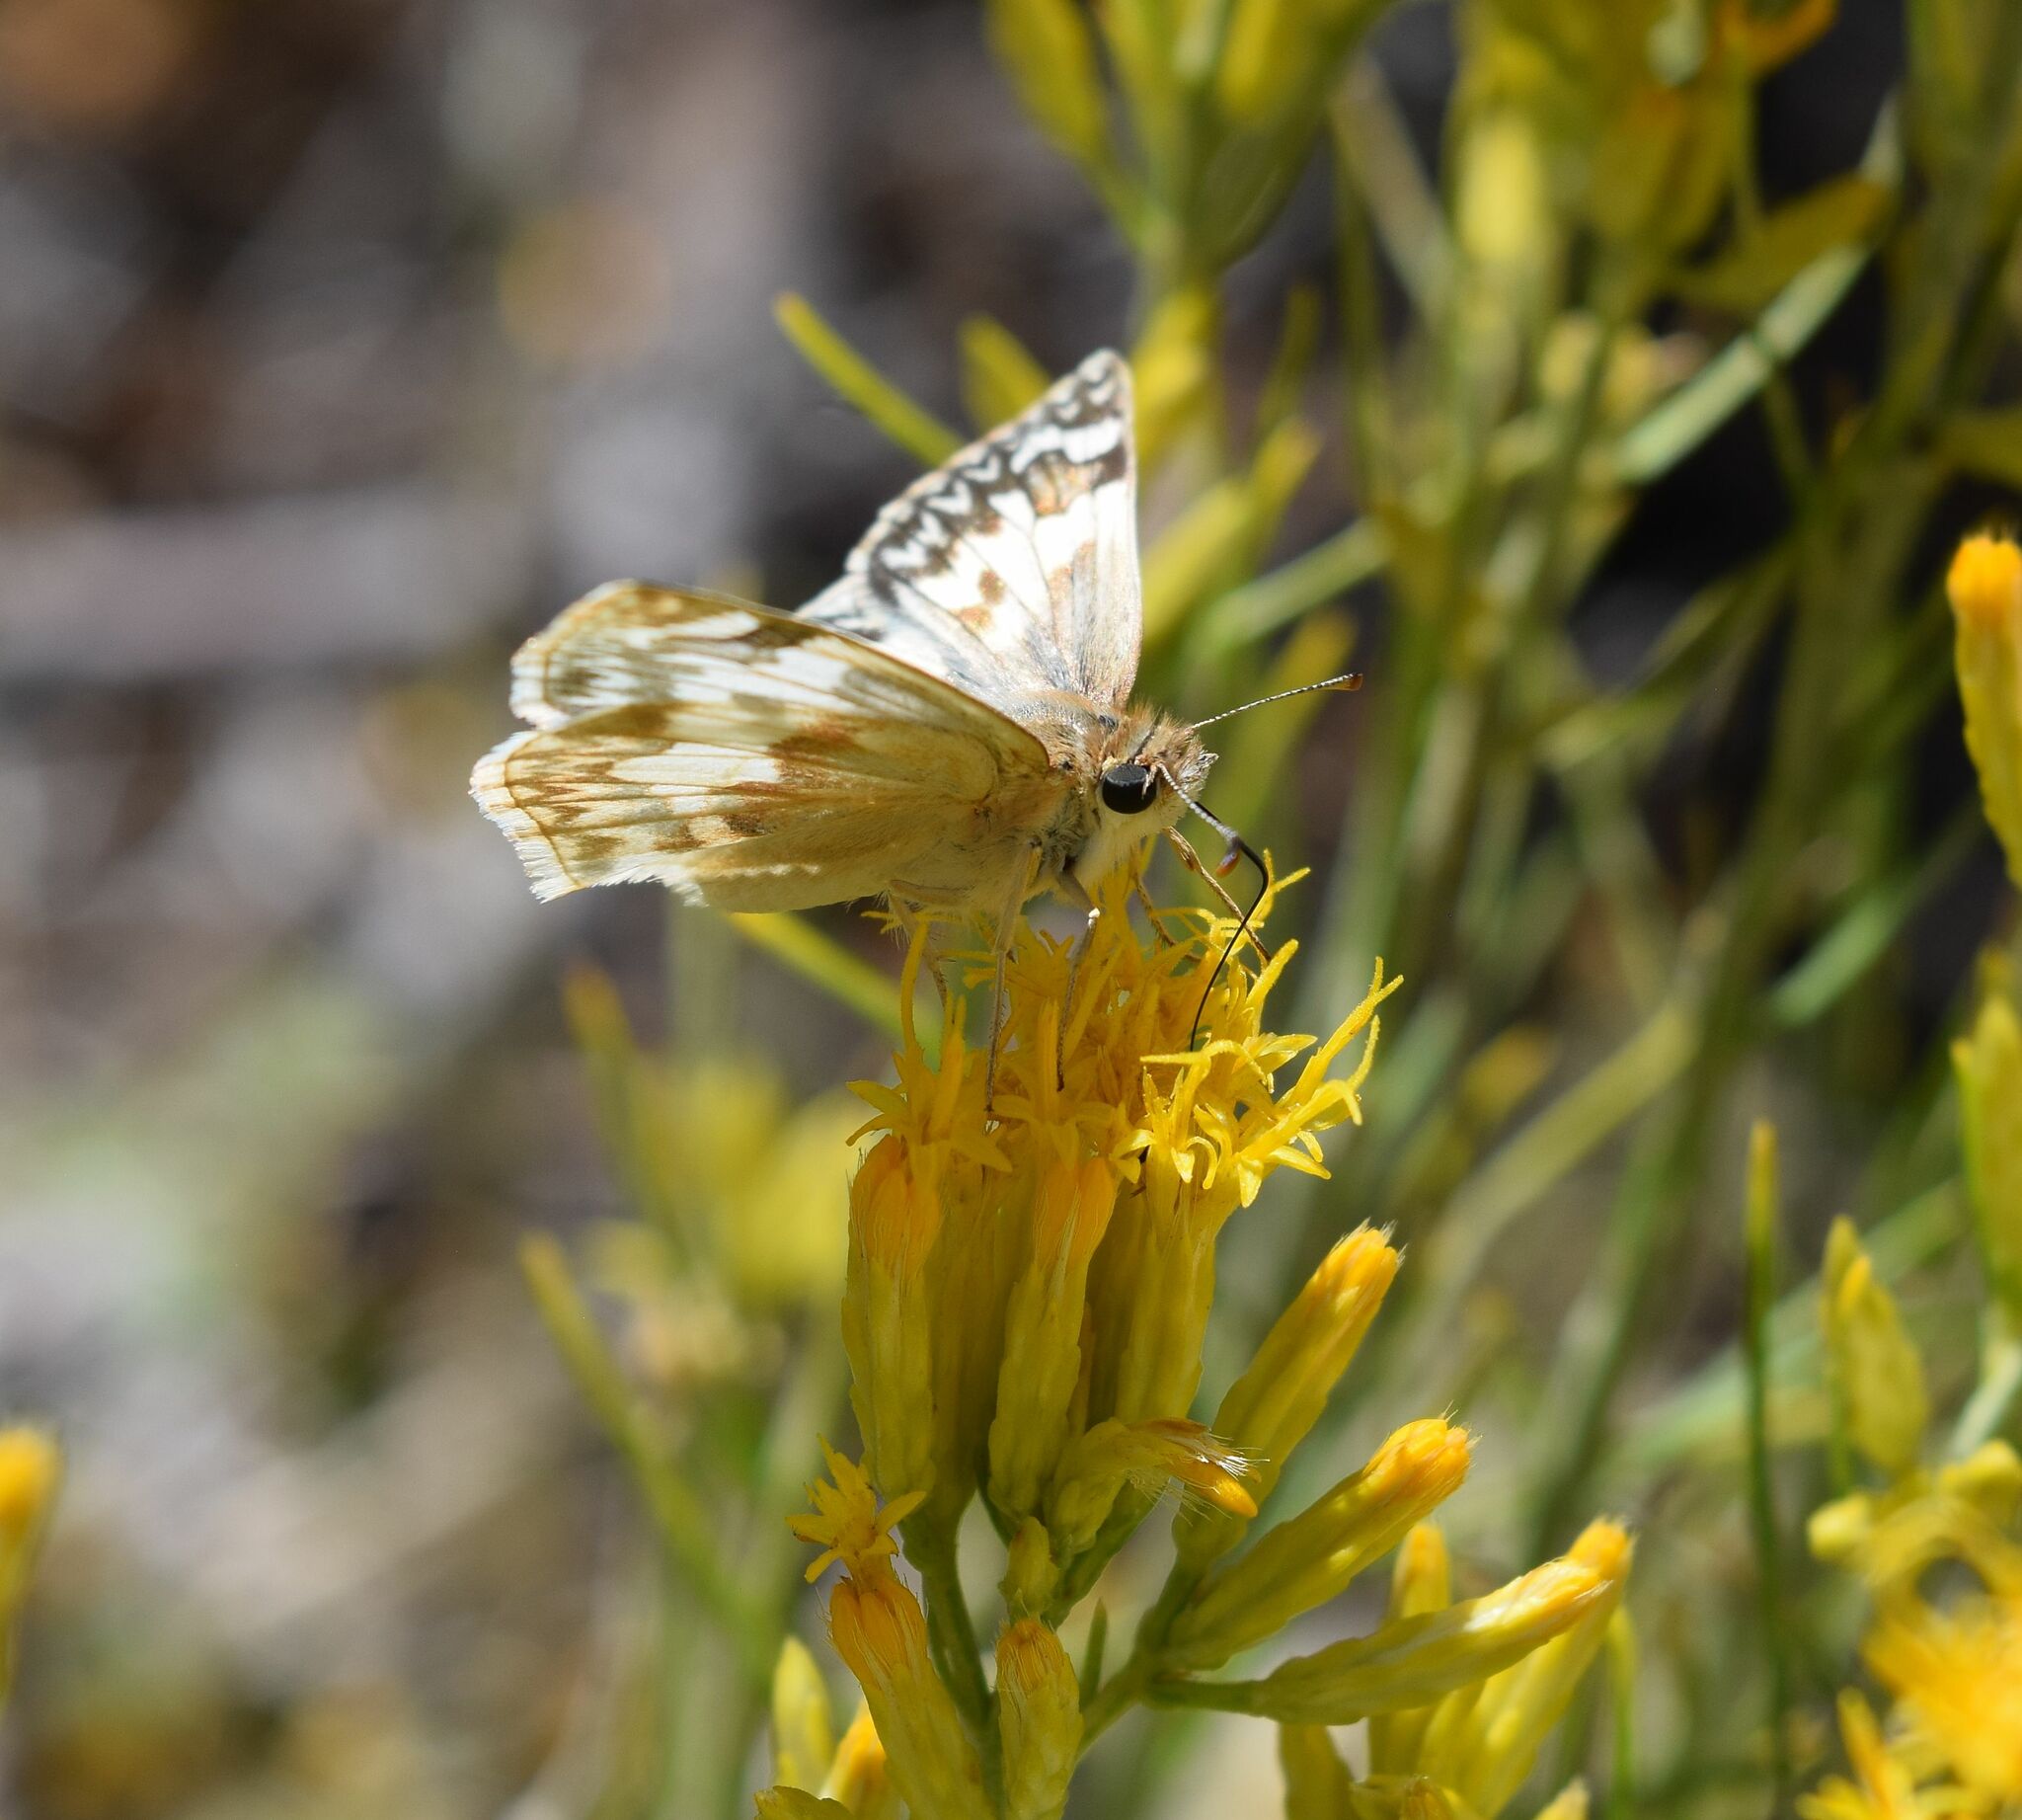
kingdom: Animalia
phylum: Arthropoda
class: Insecta
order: Lepidoptera
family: Hesperiidae
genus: Heliopetes
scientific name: Heliopetes ericetorum
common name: Northern white-skipper
